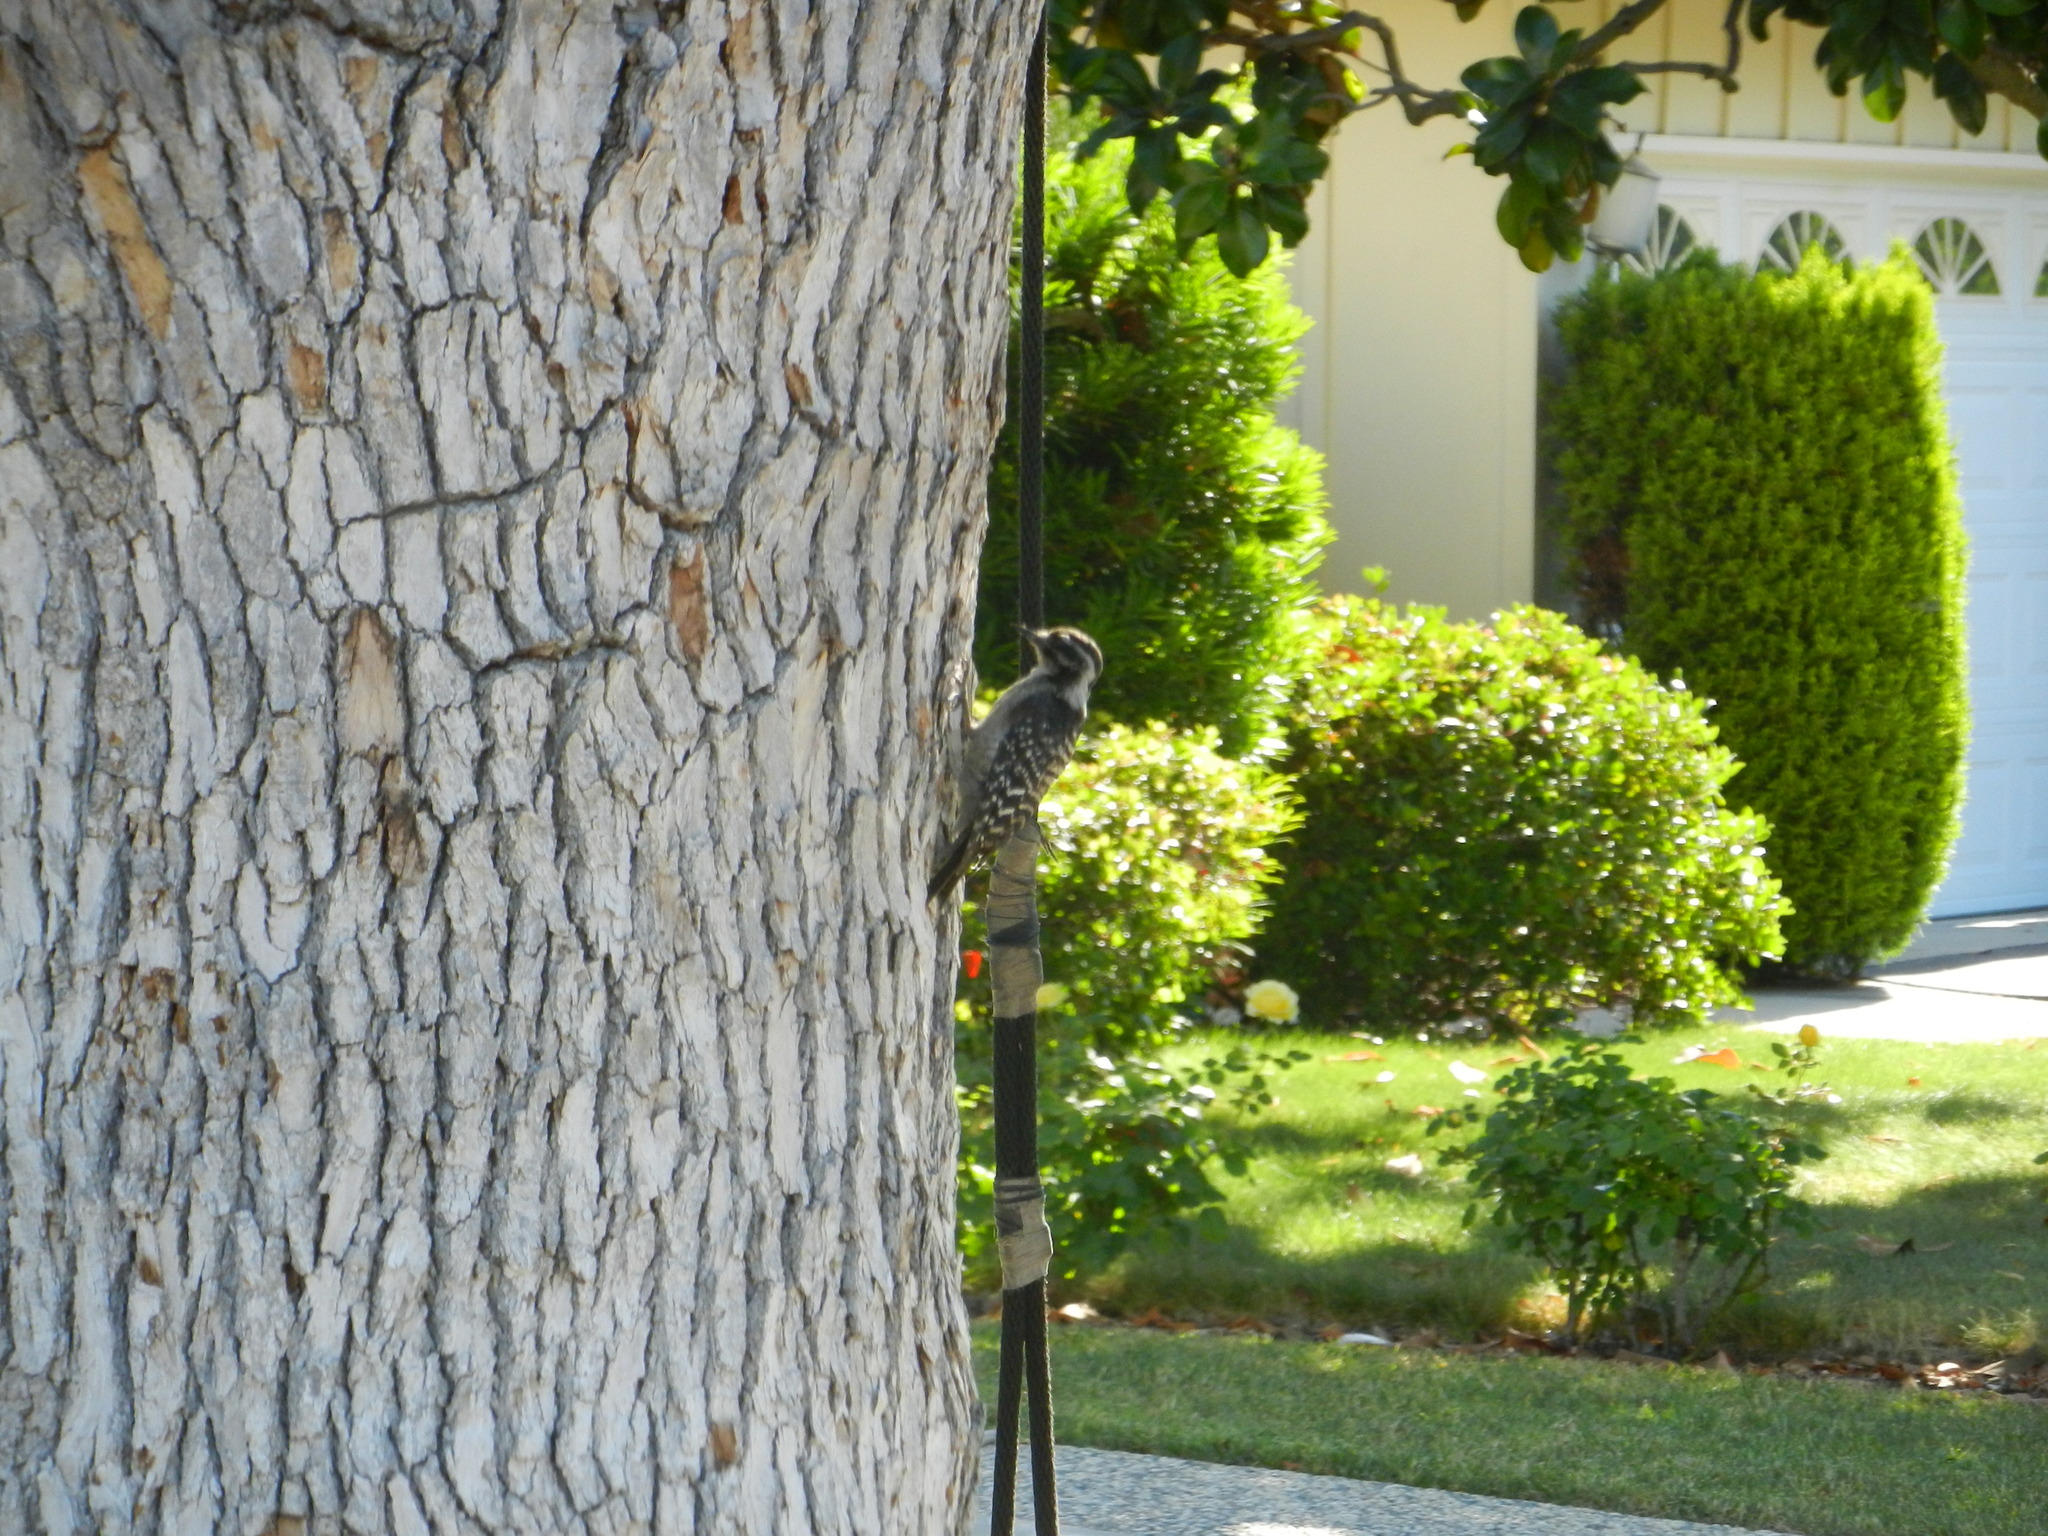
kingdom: Animalia
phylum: Chordata
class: Aves
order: Piciformes
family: Picidae
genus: Dryobates
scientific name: Dryobates nuttallii
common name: Nuttall's woodpecker
